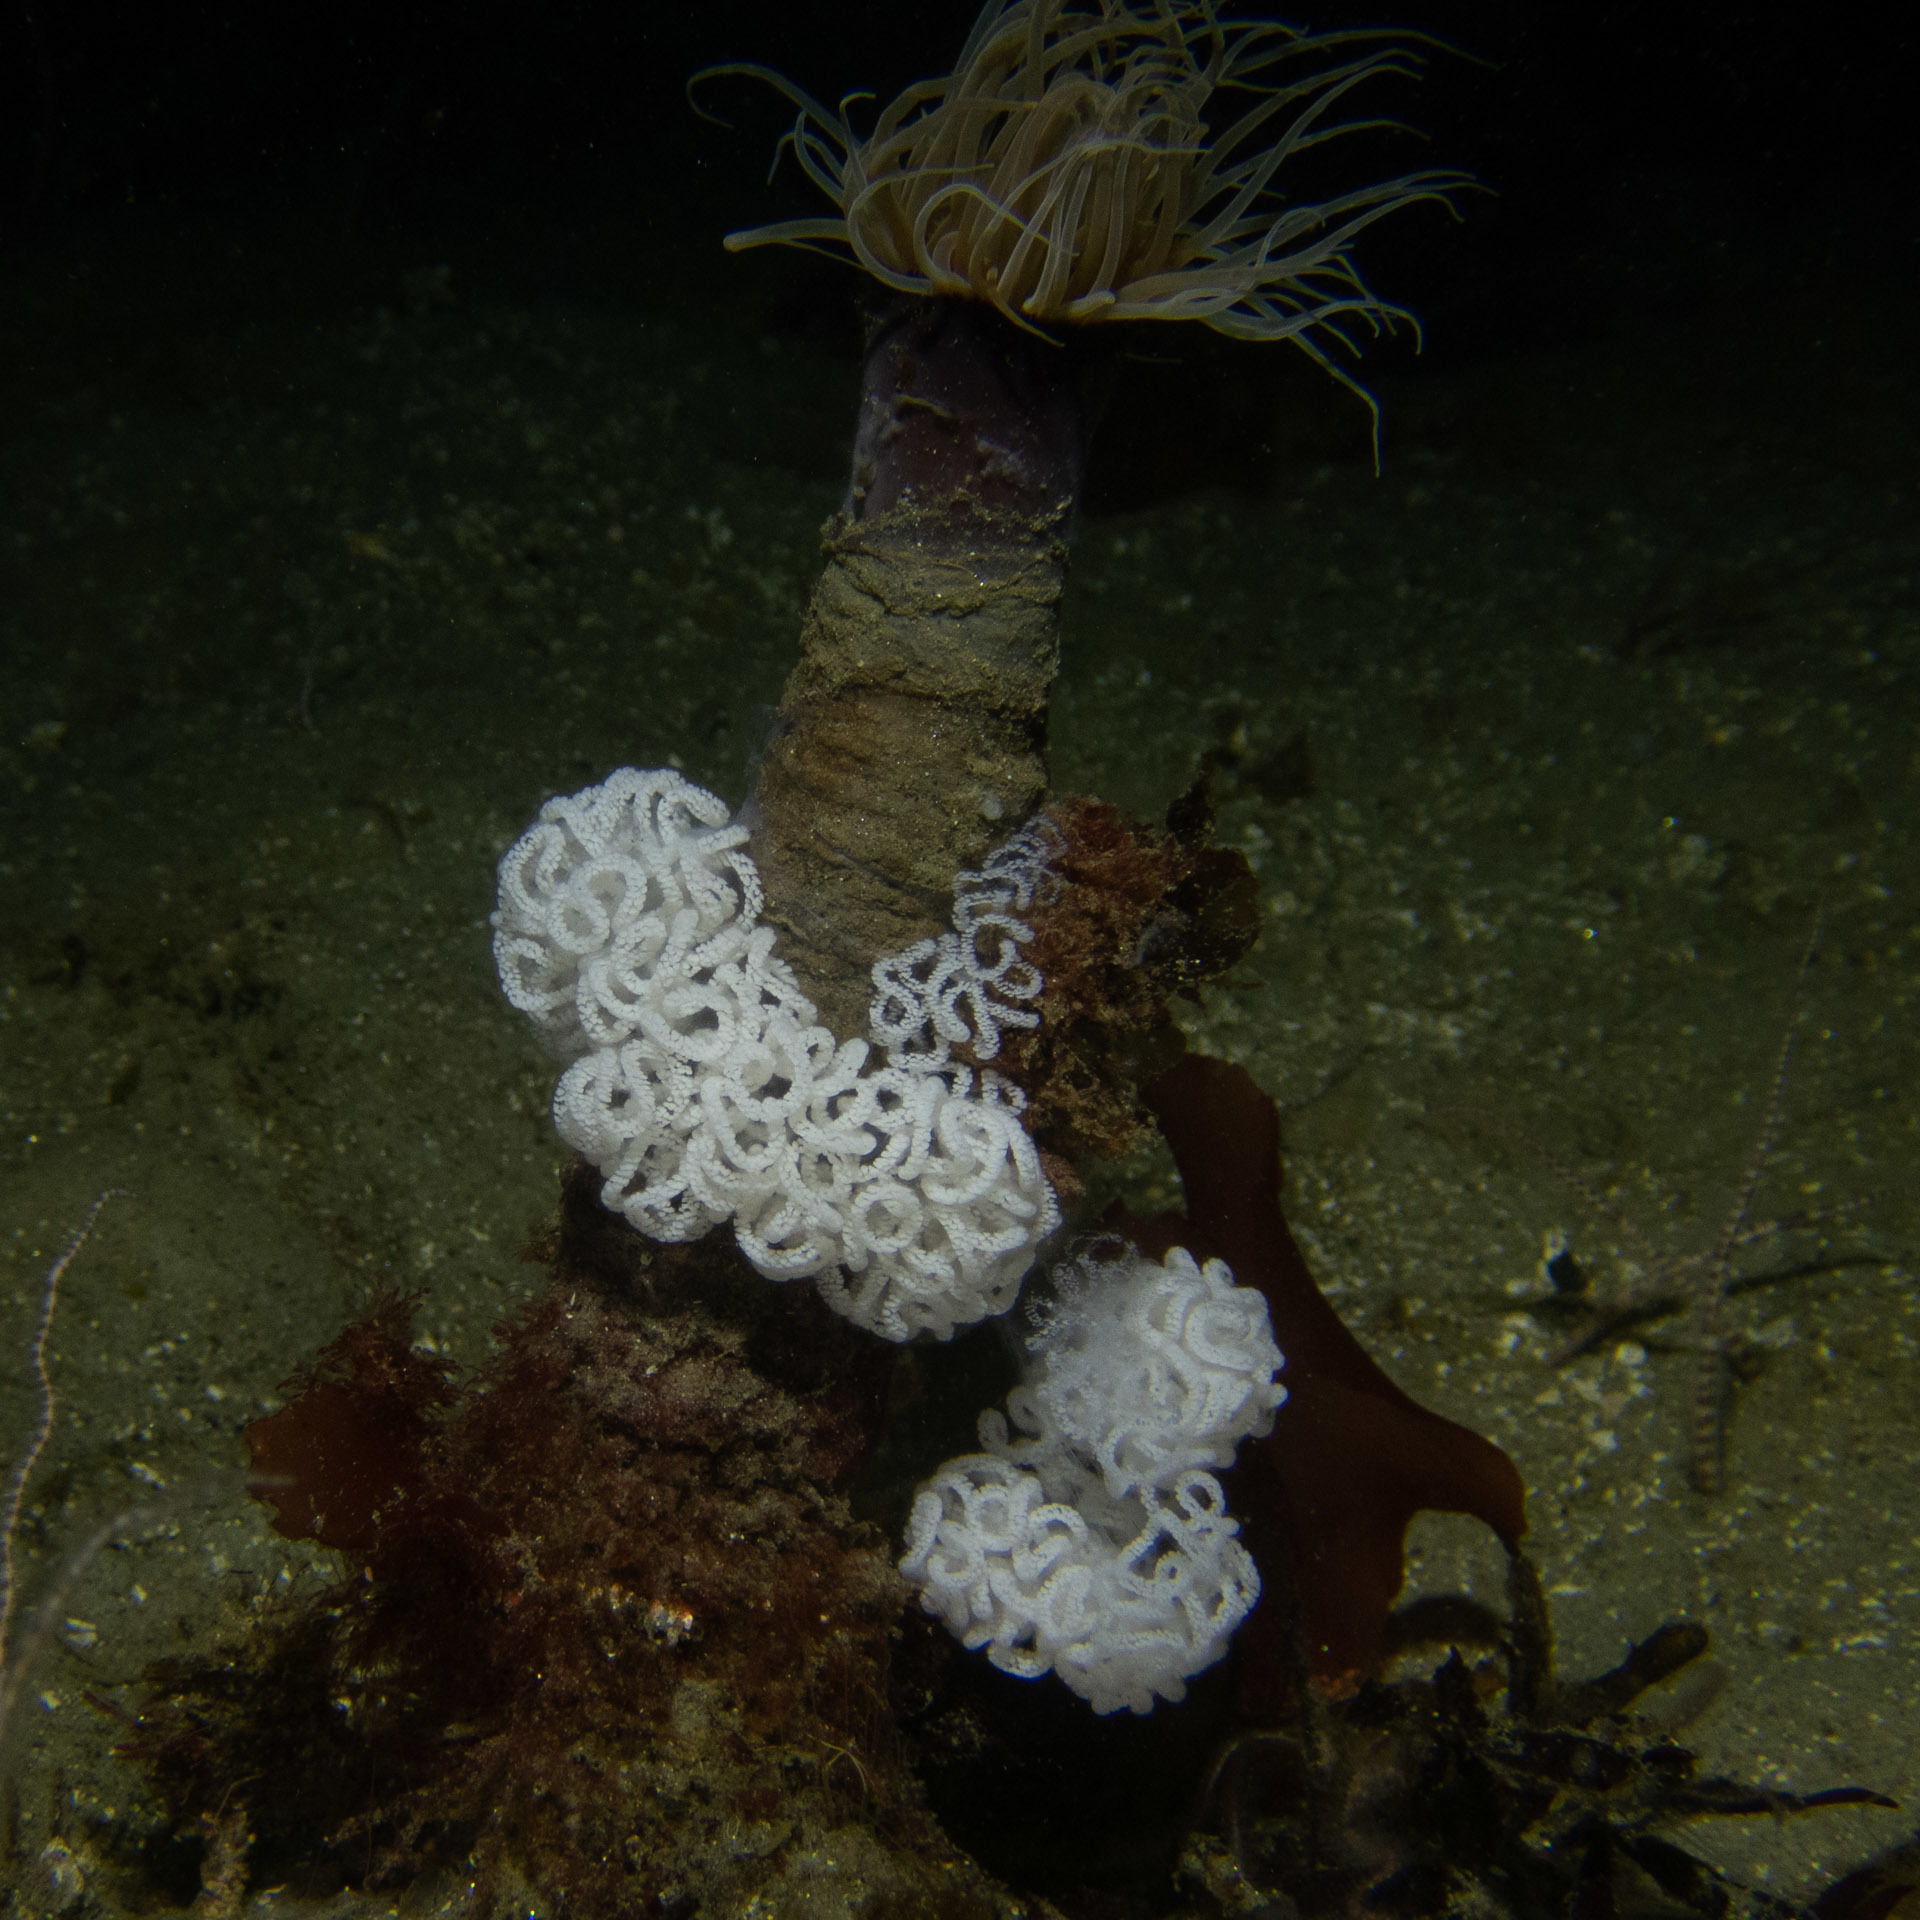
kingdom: Animalia
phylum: Mollusca
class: Gastropoda
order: Nudibranchia
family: Dendronotidae
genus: Dendronotus
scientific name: Dendronotus iris
